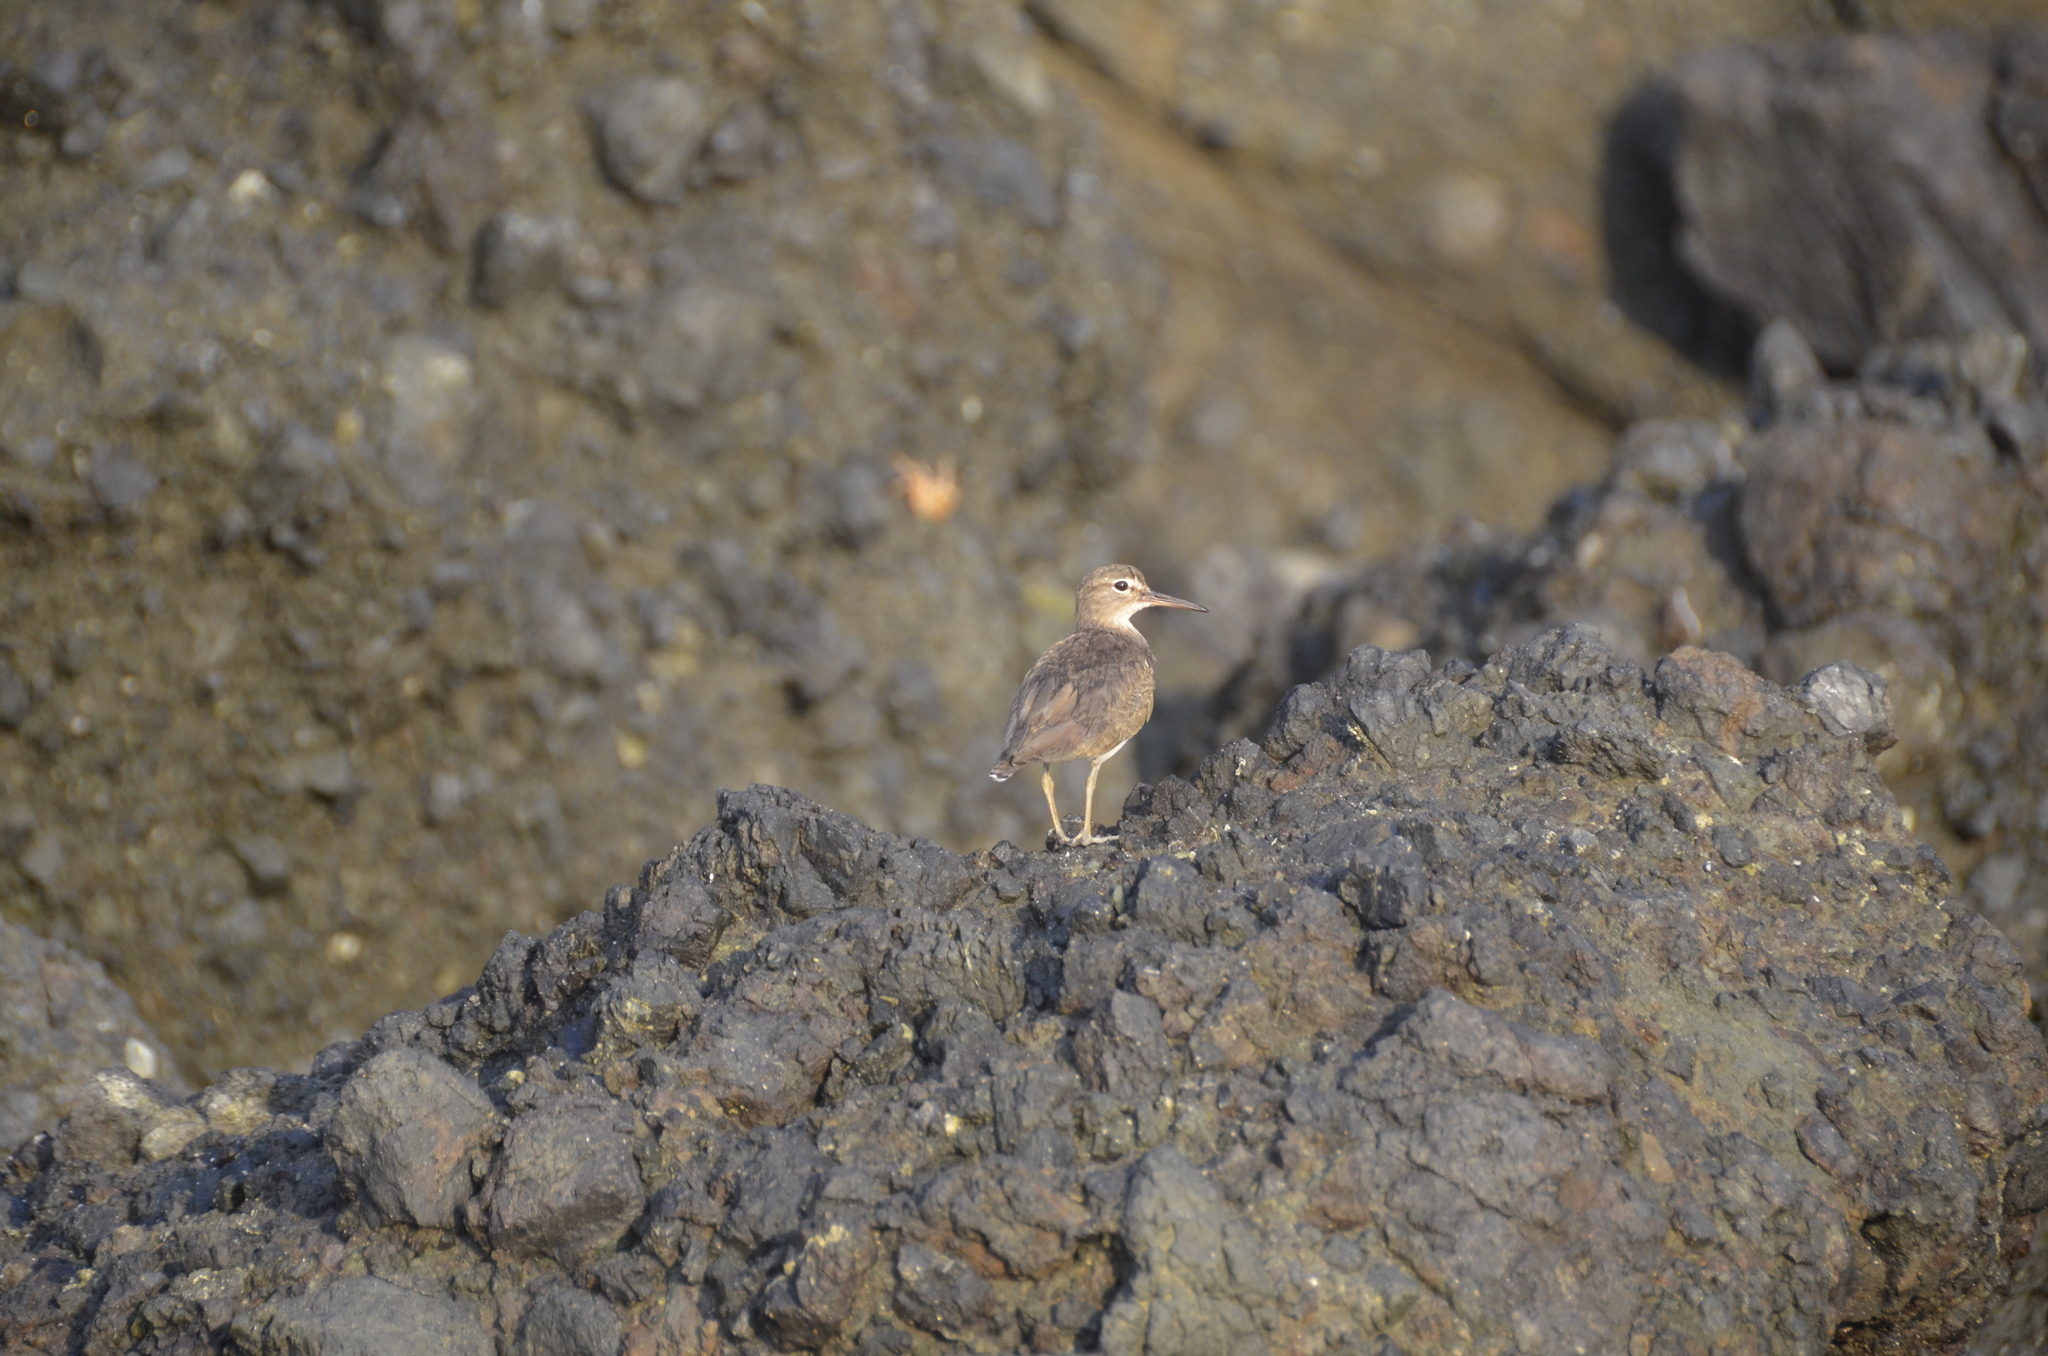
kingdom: Animalia
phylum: Chordata
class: Aves
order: Charadriiformes
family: Scolopacidae
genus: Actitis
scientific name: Actitis macularius
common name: Spotted sandpiper
